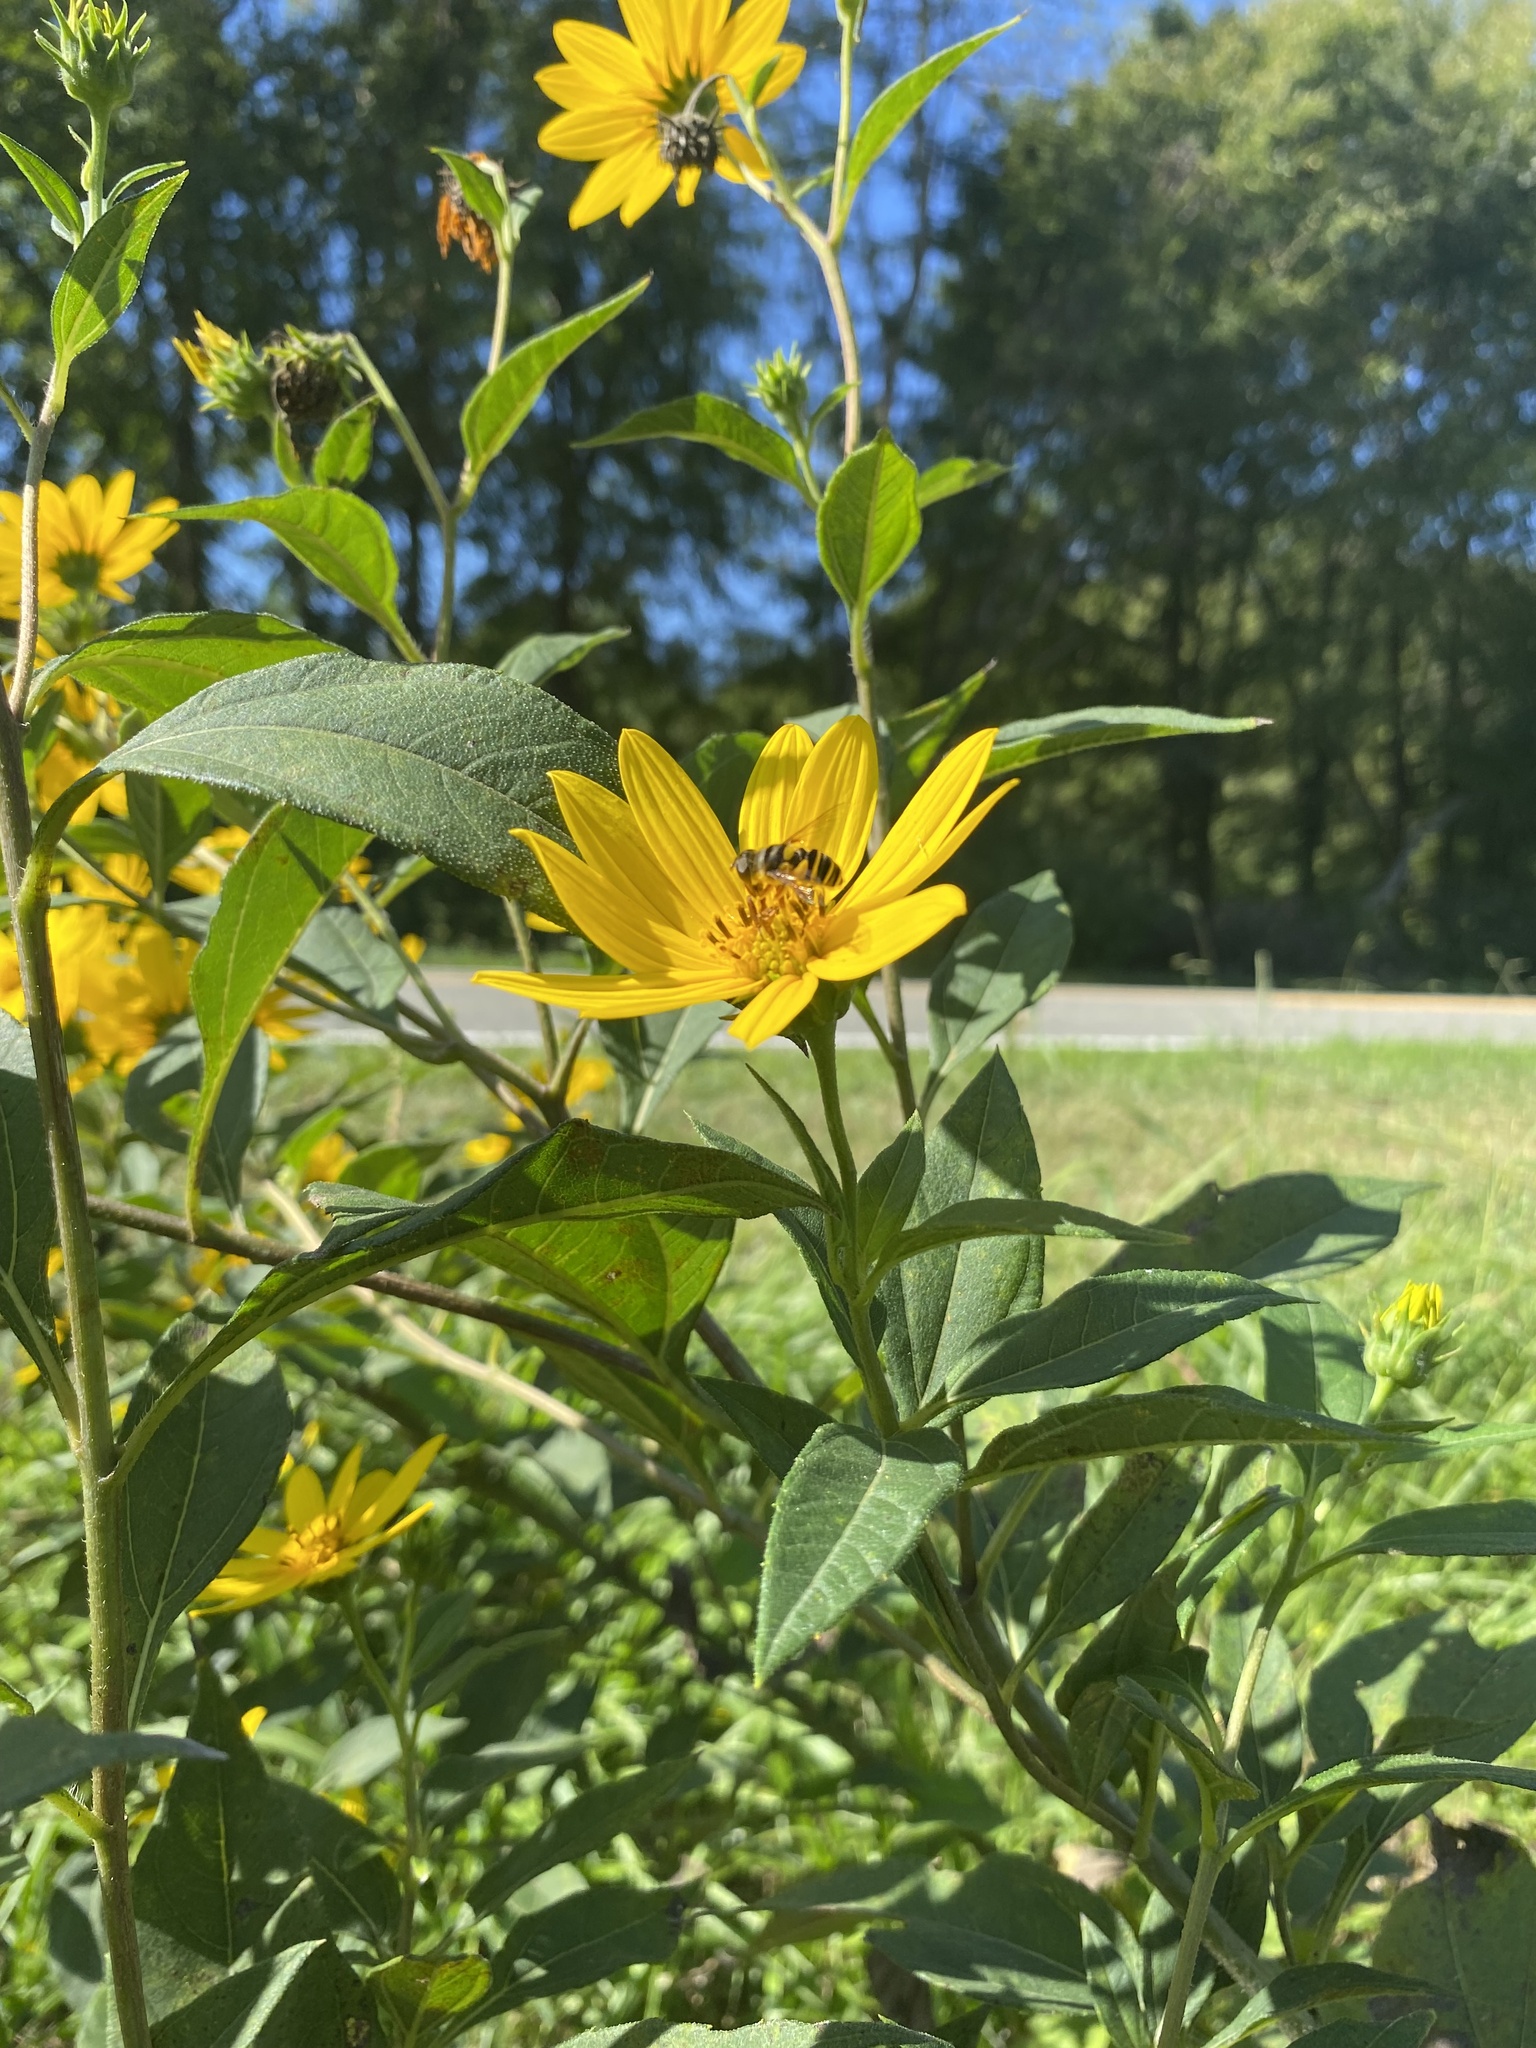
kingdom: Plantae
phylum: Tracheophyta
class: Magnoliopsida
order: Asterales
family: Asteraceae
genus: Helianthus
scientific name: Helianthus strumosus
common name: Pale-leaved sunflower
